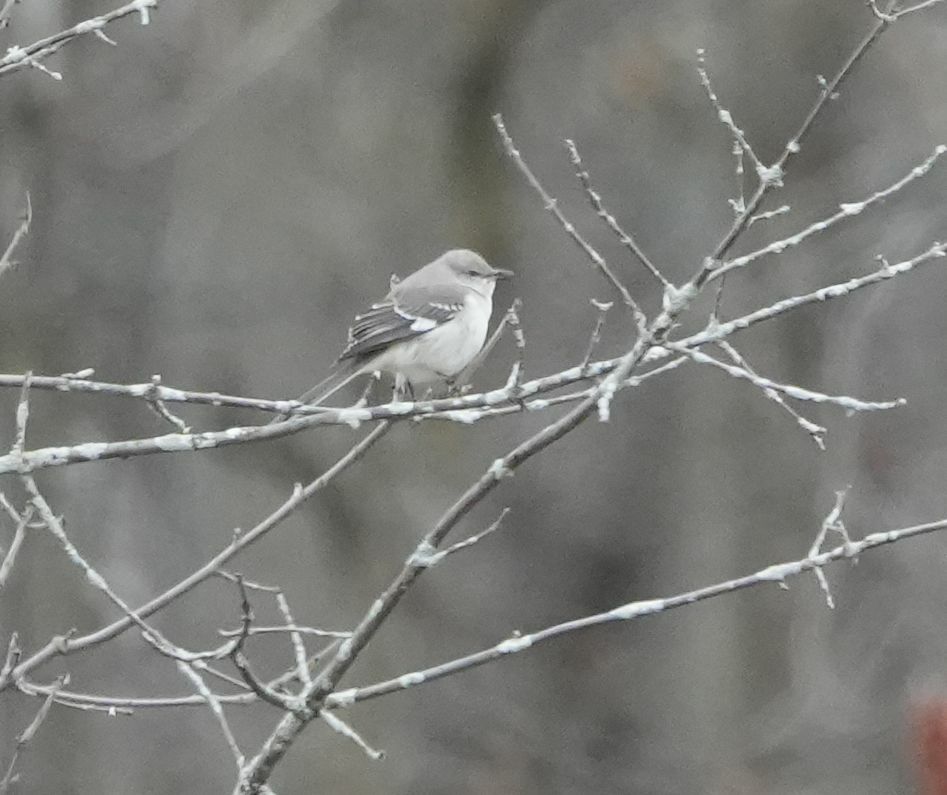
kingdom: Animalia
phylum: Chordata
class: Aves
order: Passeriformes
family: Mimidae
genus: Mimus
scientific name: Mimus polyglottos
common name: Northern mockingbird
